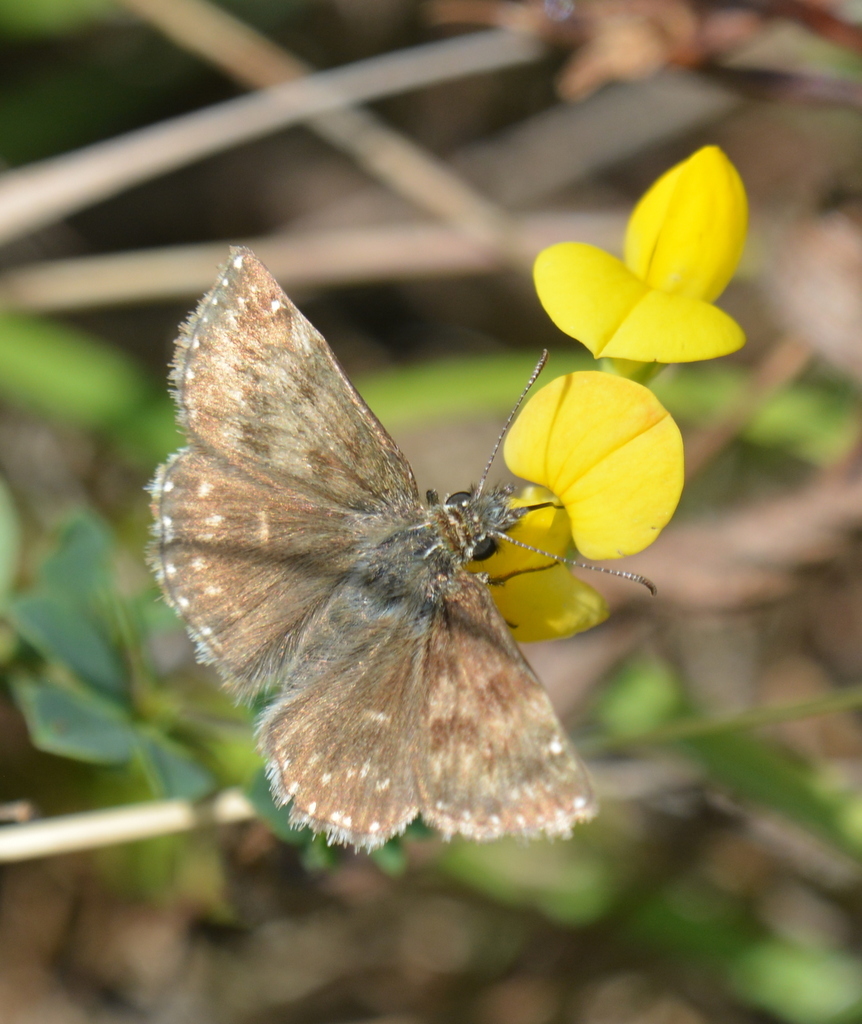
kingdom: Animalia
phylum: Arthropoda
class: Insecta
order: Lepidoptera
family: Hesperiidae
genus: Erynnis
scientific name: Erynnis tages
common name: Dingy skipper
